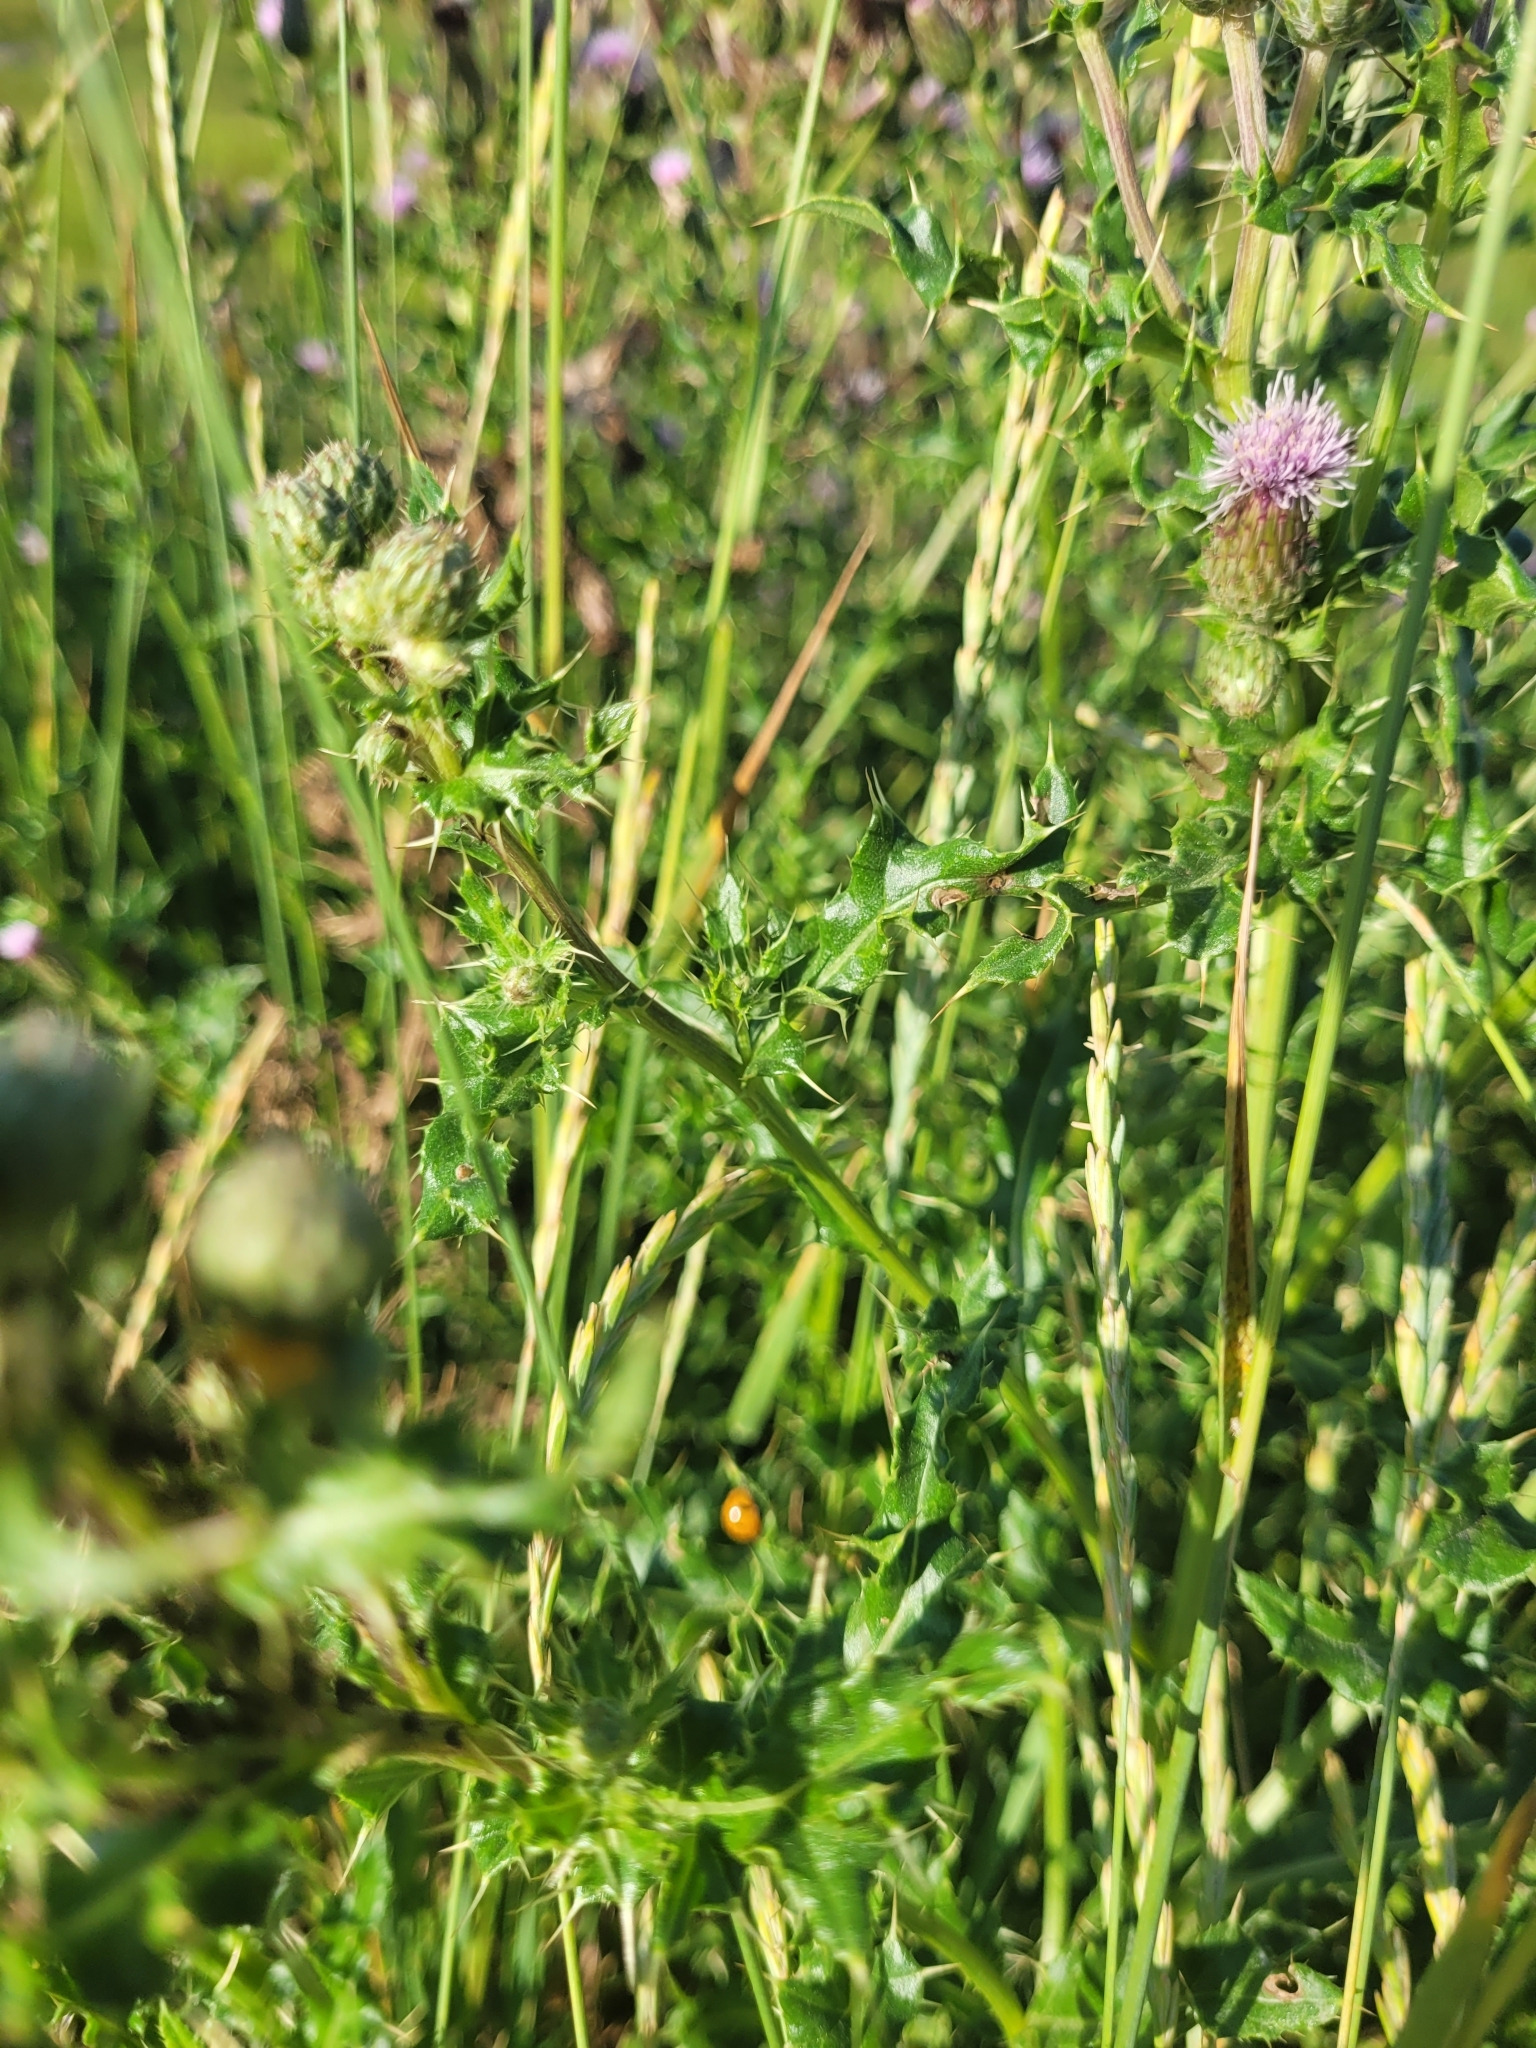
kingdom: Plantae
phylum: Tracheophyta
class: Magnoliopsida
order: Asterales
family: Asteraceae
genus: Cirsium
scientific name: Cirsium arvense
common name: Creeping thistle
